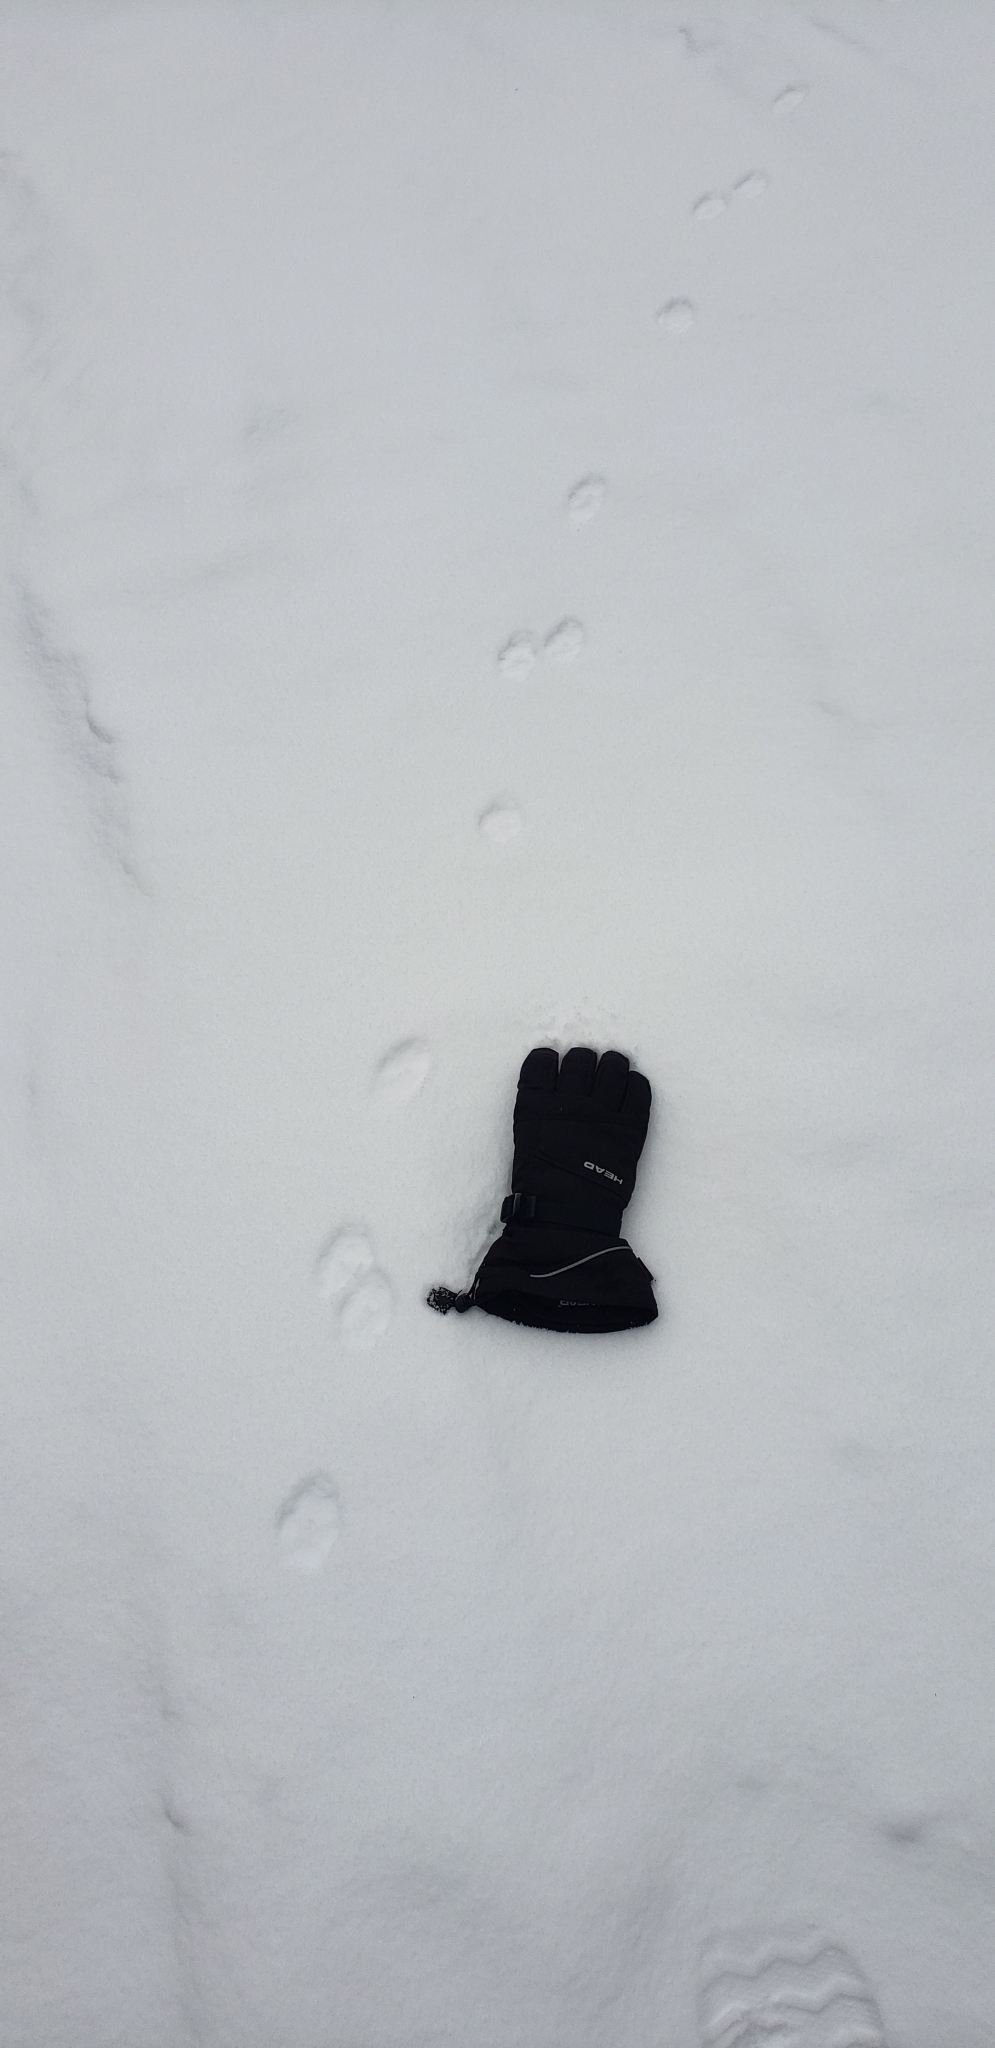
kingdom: Animalia
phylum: Chordata
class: Mammalia
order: Carnivora
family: Canidae
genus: Vulpes
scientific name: Vulpes vulpes
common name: Red fox
